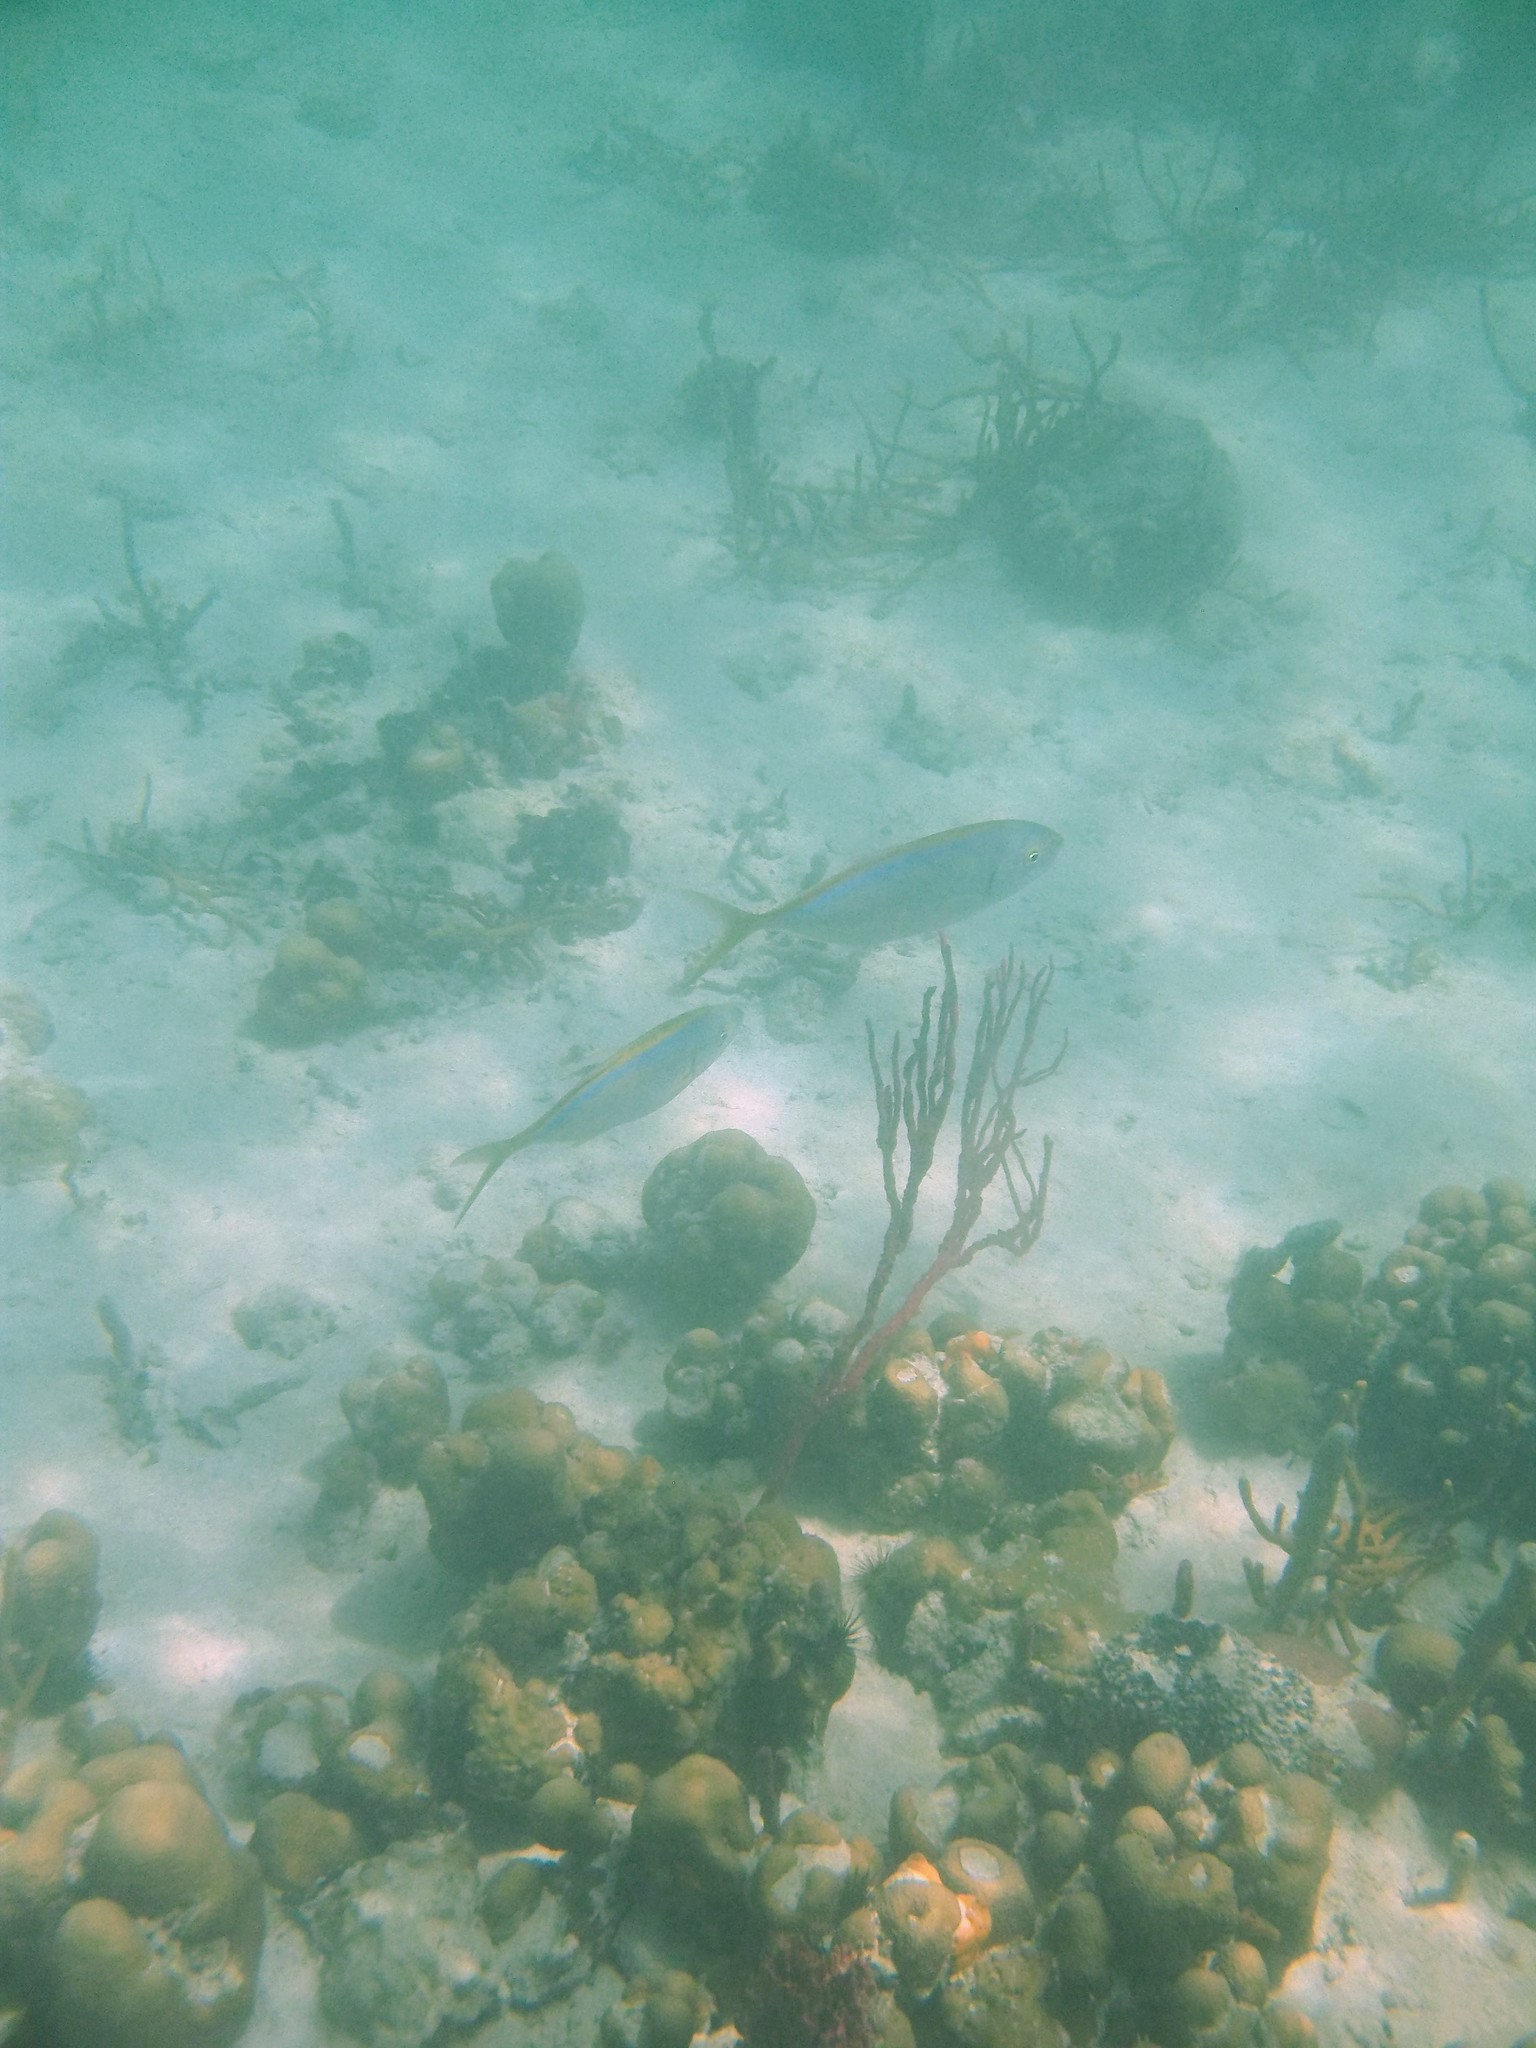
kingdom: Animalia
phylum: Chordata
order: Perciformes
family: Carangidae
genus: Caranx
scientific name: Caranx ruber
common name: Bar jack
